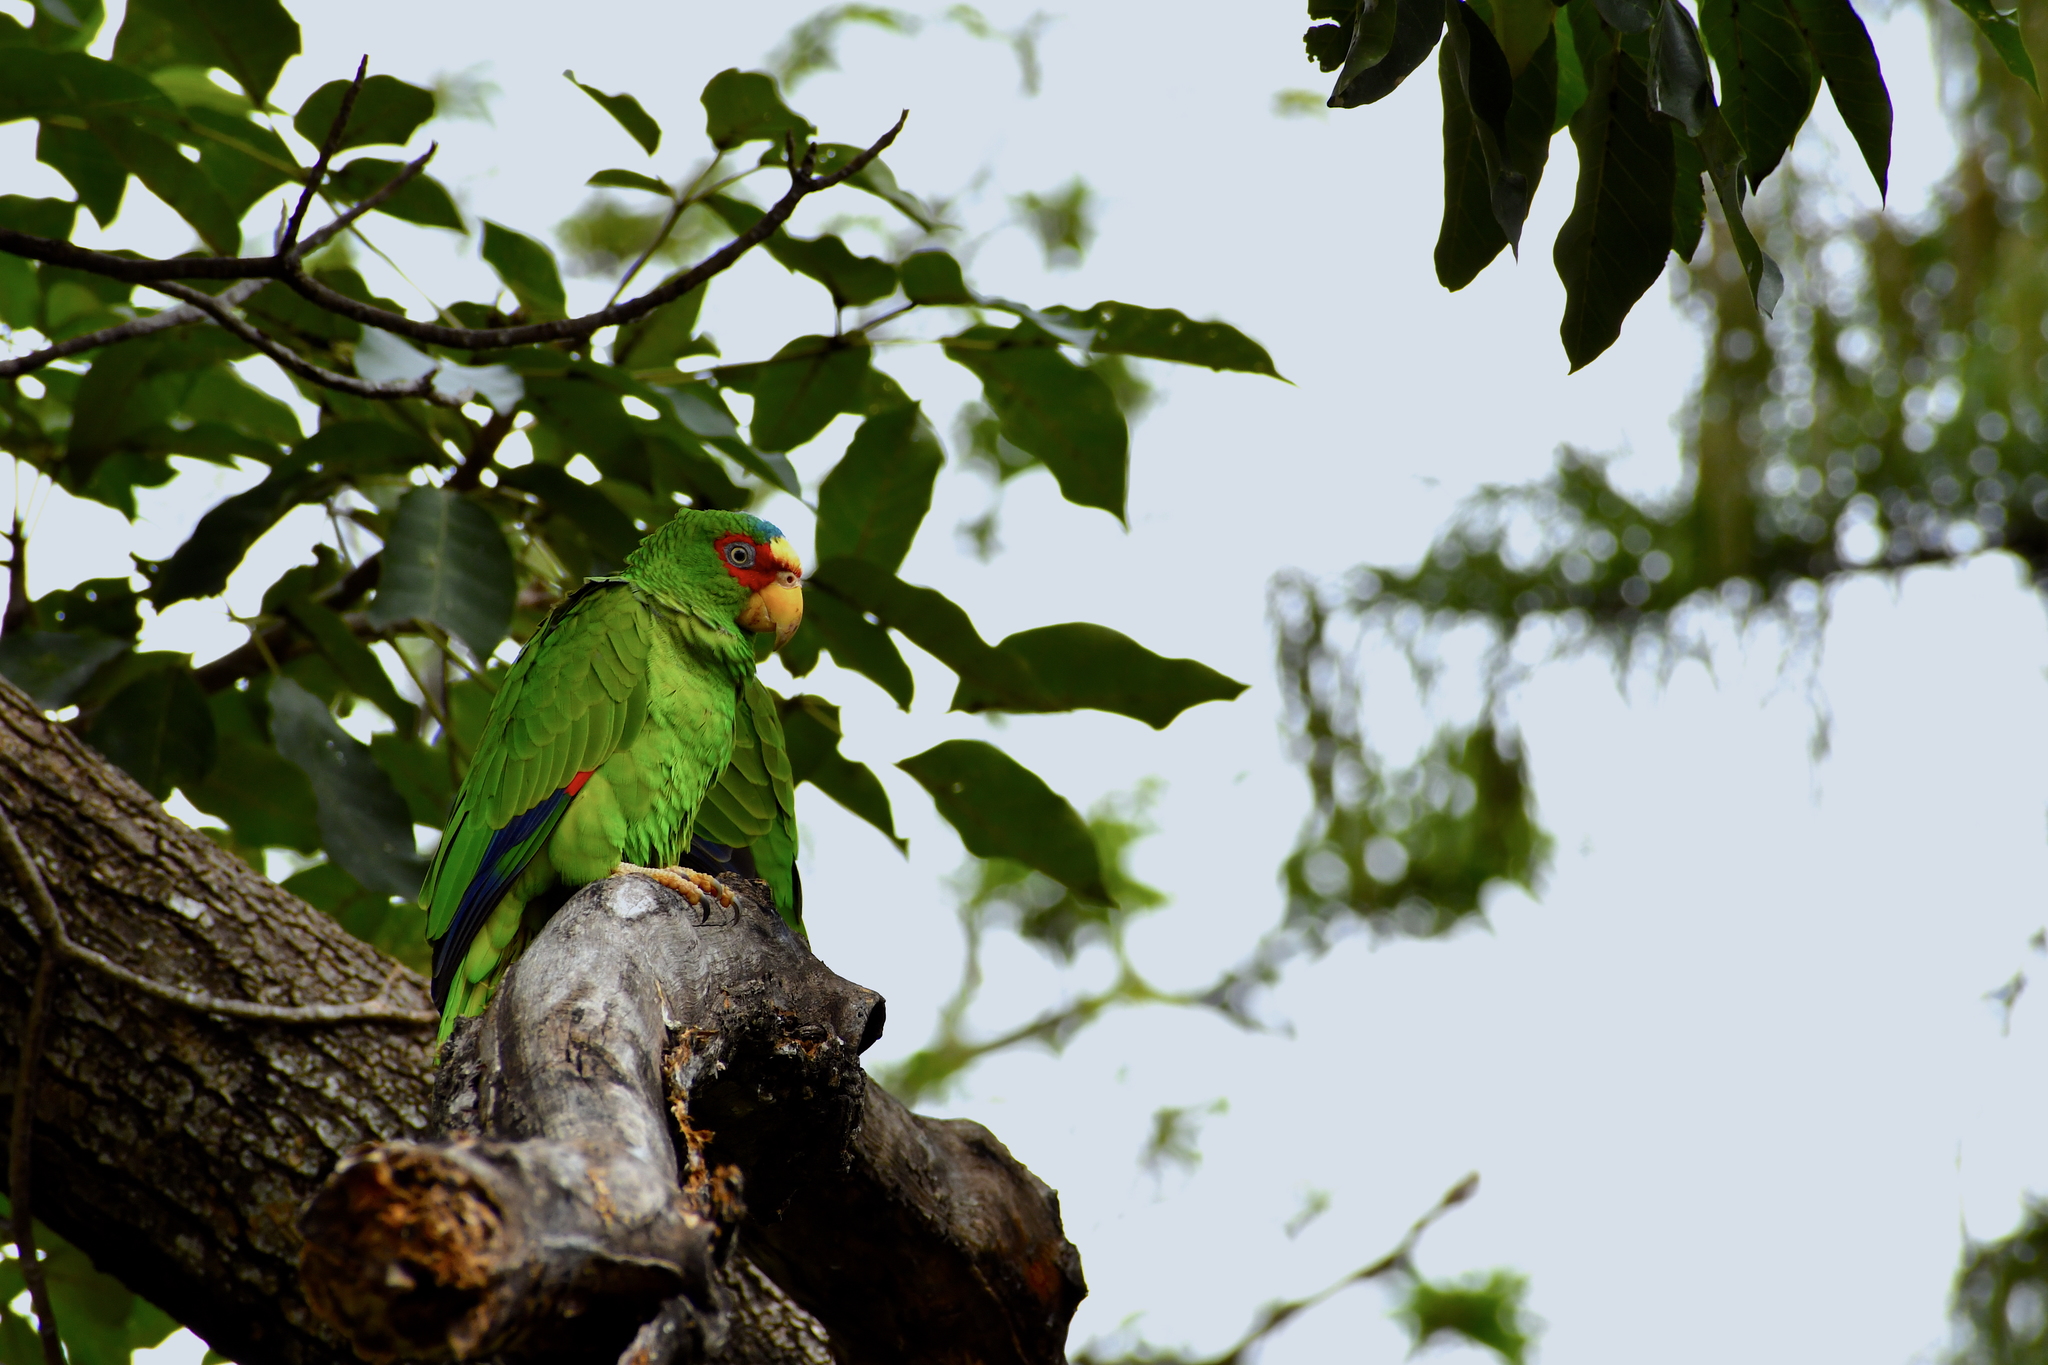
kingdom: Animalia
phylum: Chordata
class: Aves
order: Psittaciformes
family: Psittacidae
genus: Amazona
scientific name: Amazona albifrons
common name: White-fronted amazon
